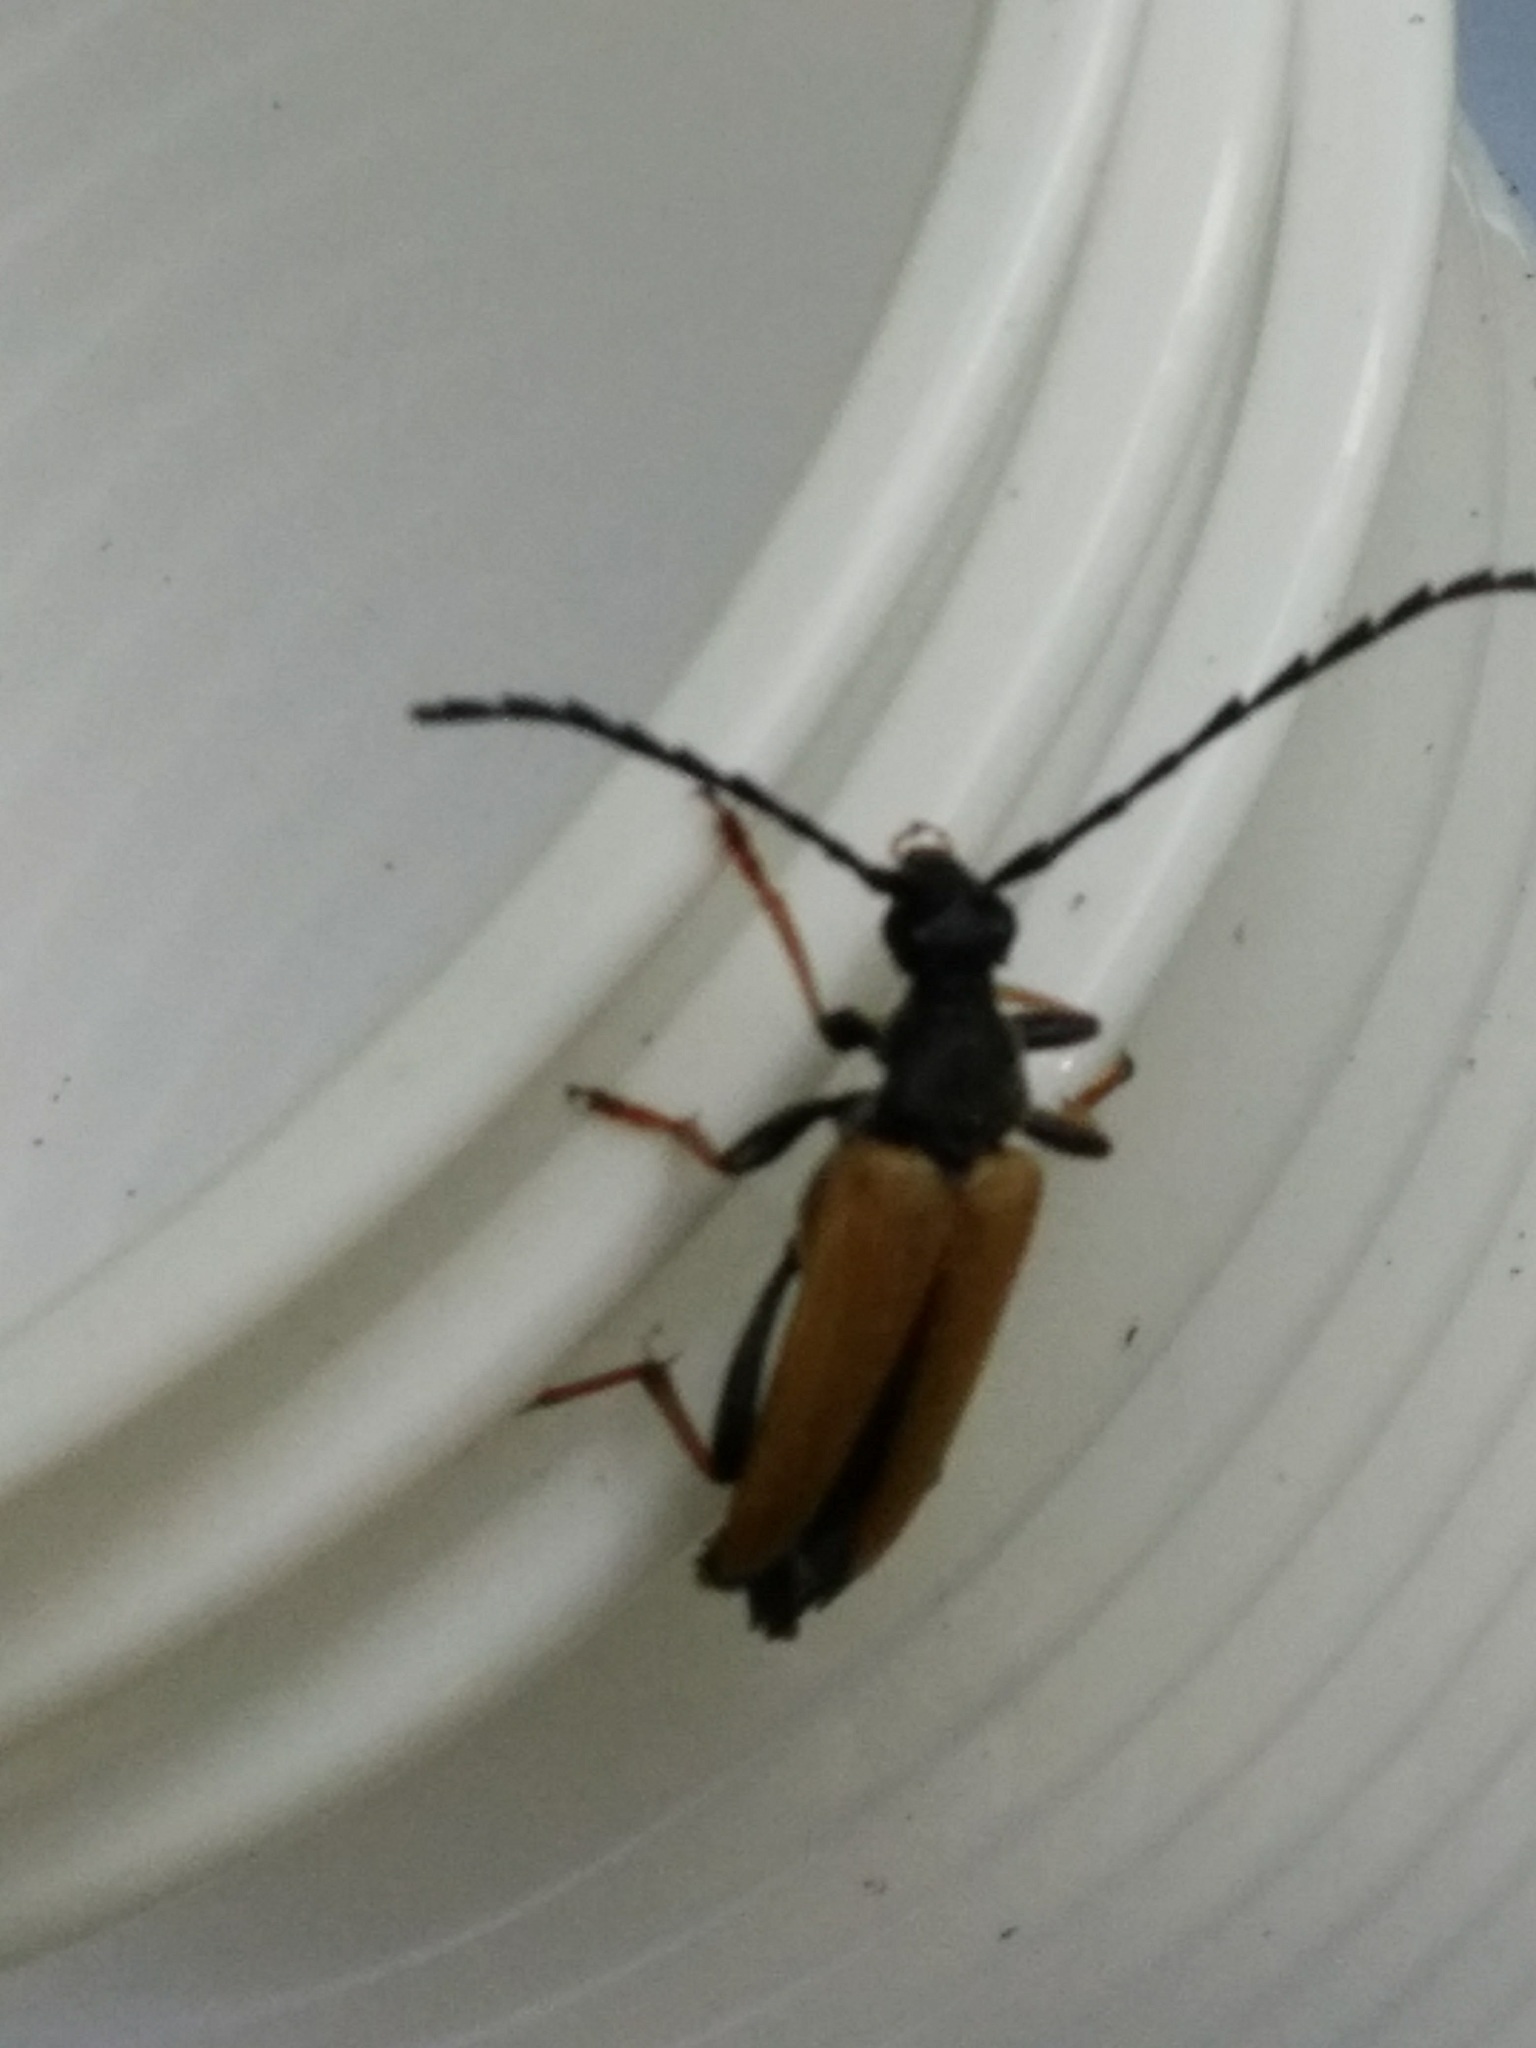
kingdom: Animalia
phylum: Arthropoda
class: Insecta
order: Coleoptera
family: Cerambycidae
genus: Stictoleptura
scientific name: Stictoleptura rubra
